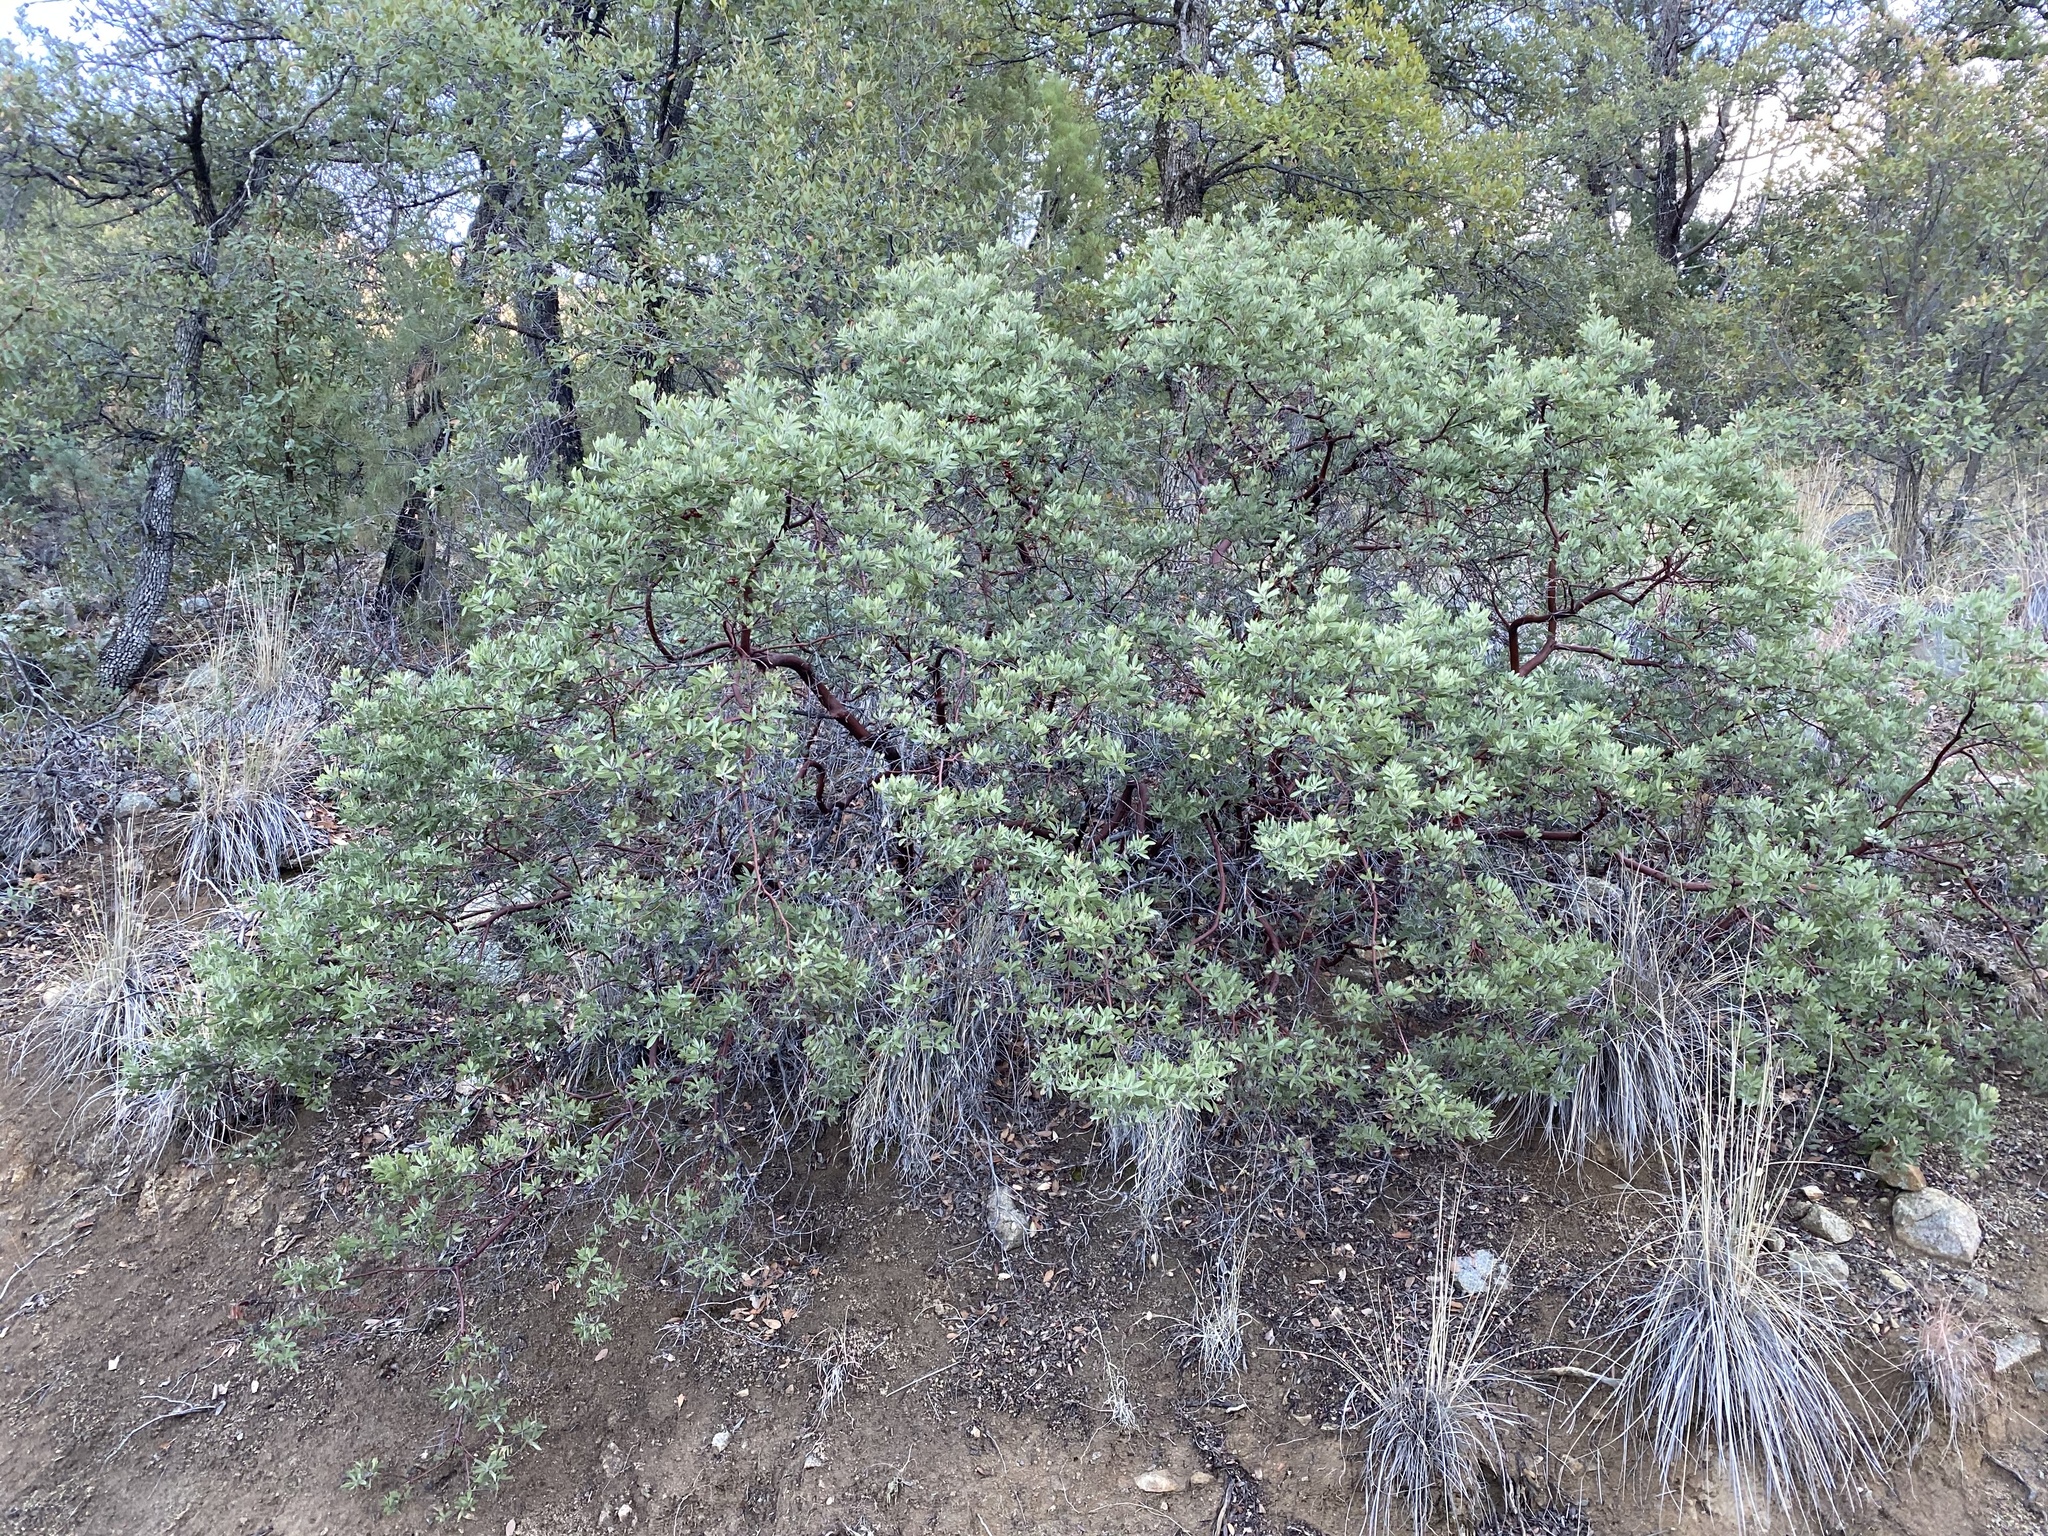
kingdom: Plantae
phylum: Tracheophyta
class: Magnoliopsida
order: Ericales
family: Ericaceae
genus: Arctostaphylos
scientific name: Arctostaphylos pungens
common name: Mexican manzanita
